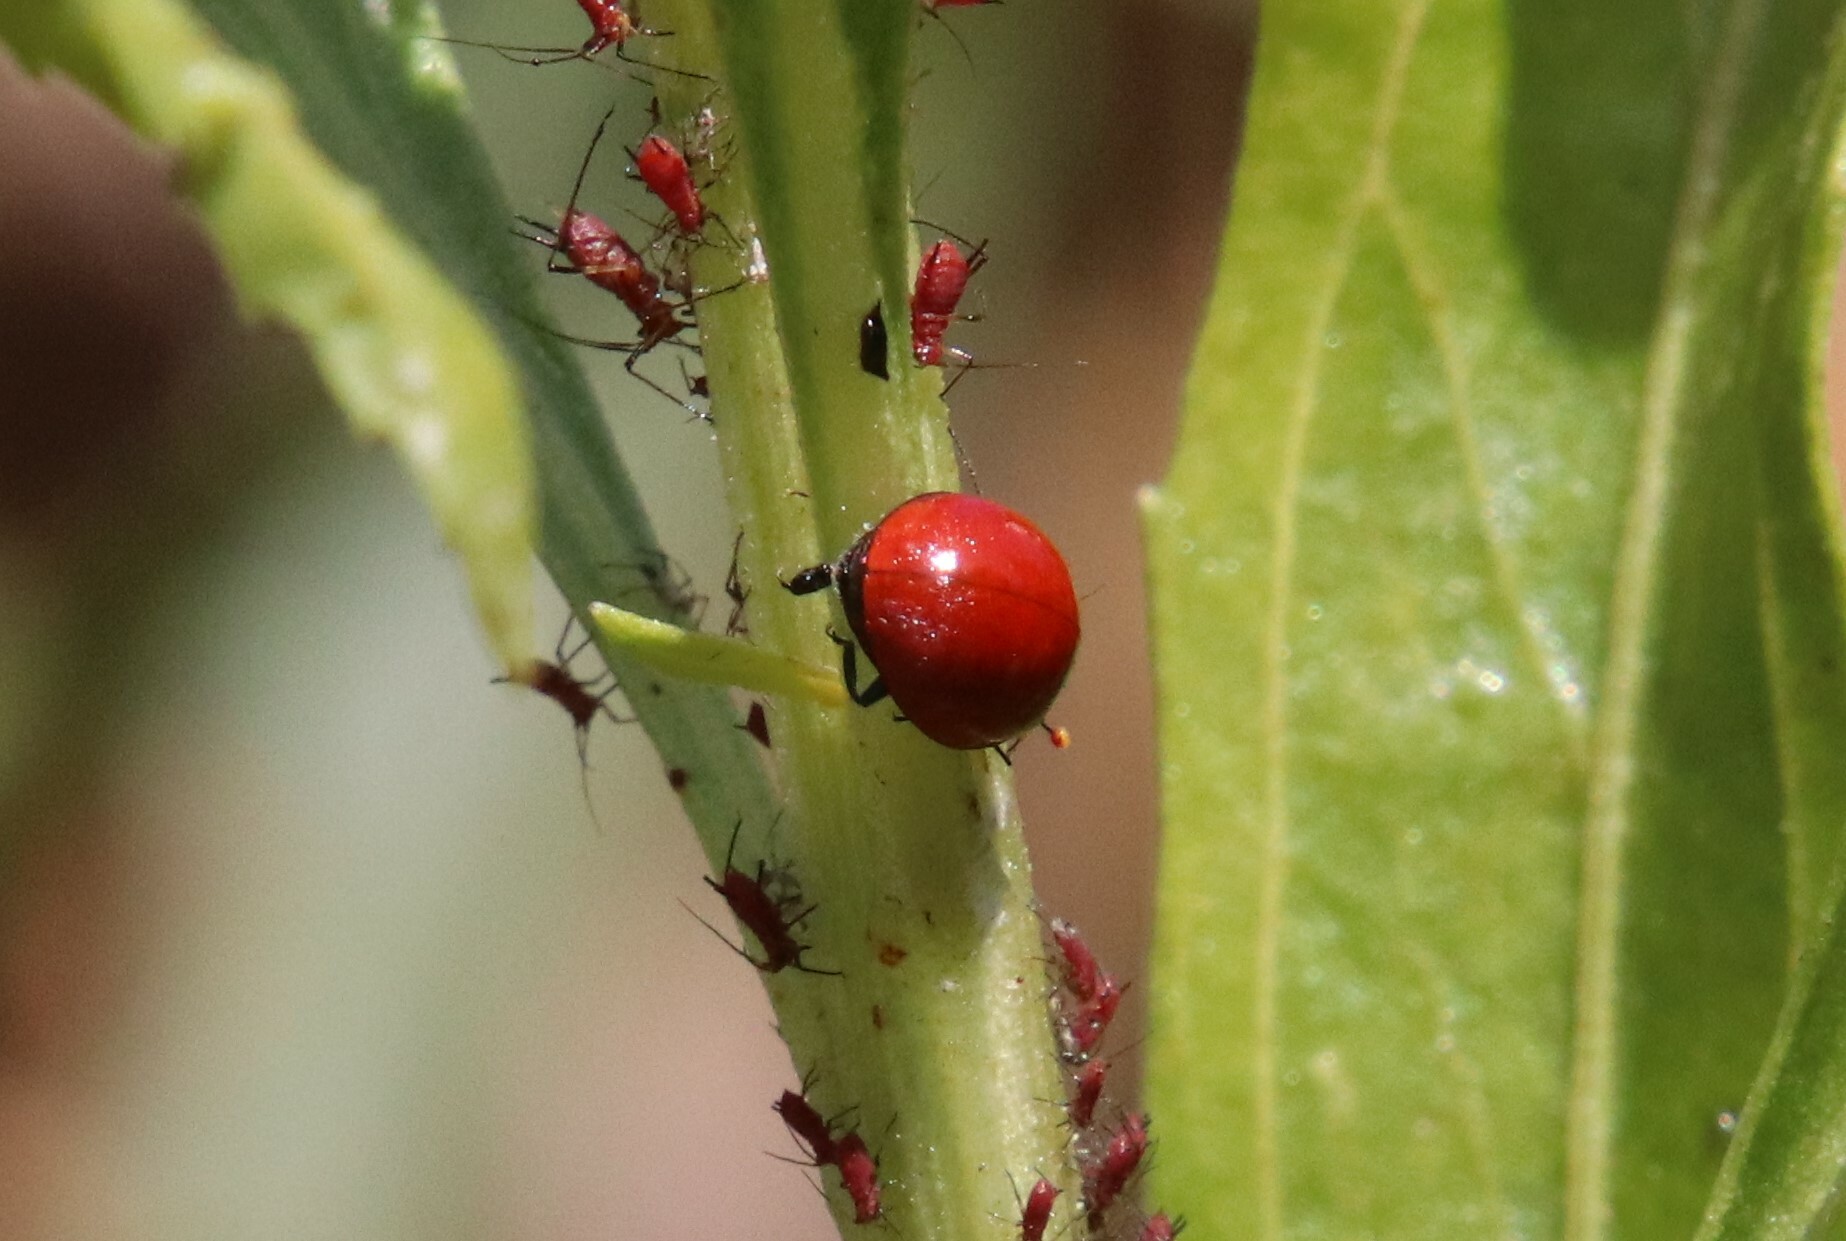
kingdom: Animalia
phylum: Arthropoda
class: Insecta
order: Coleoptera
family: Coccinellidae
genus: Cycloneda
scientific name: Cycloneda
